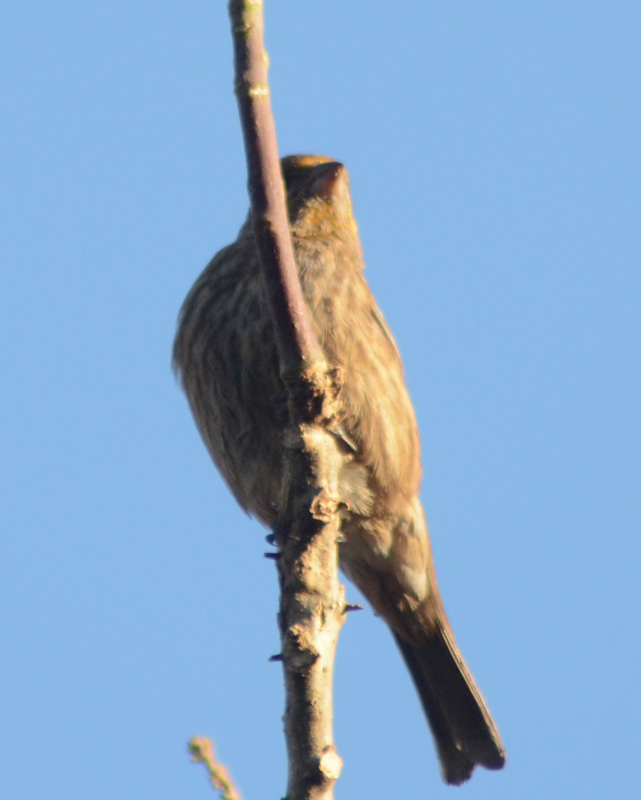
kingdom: Animalia
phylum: Chordata
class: Aves
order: Passeriformes
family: Fringillidae
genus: Haemorhous
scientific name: Haemorhous mexicanus
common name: House finch
